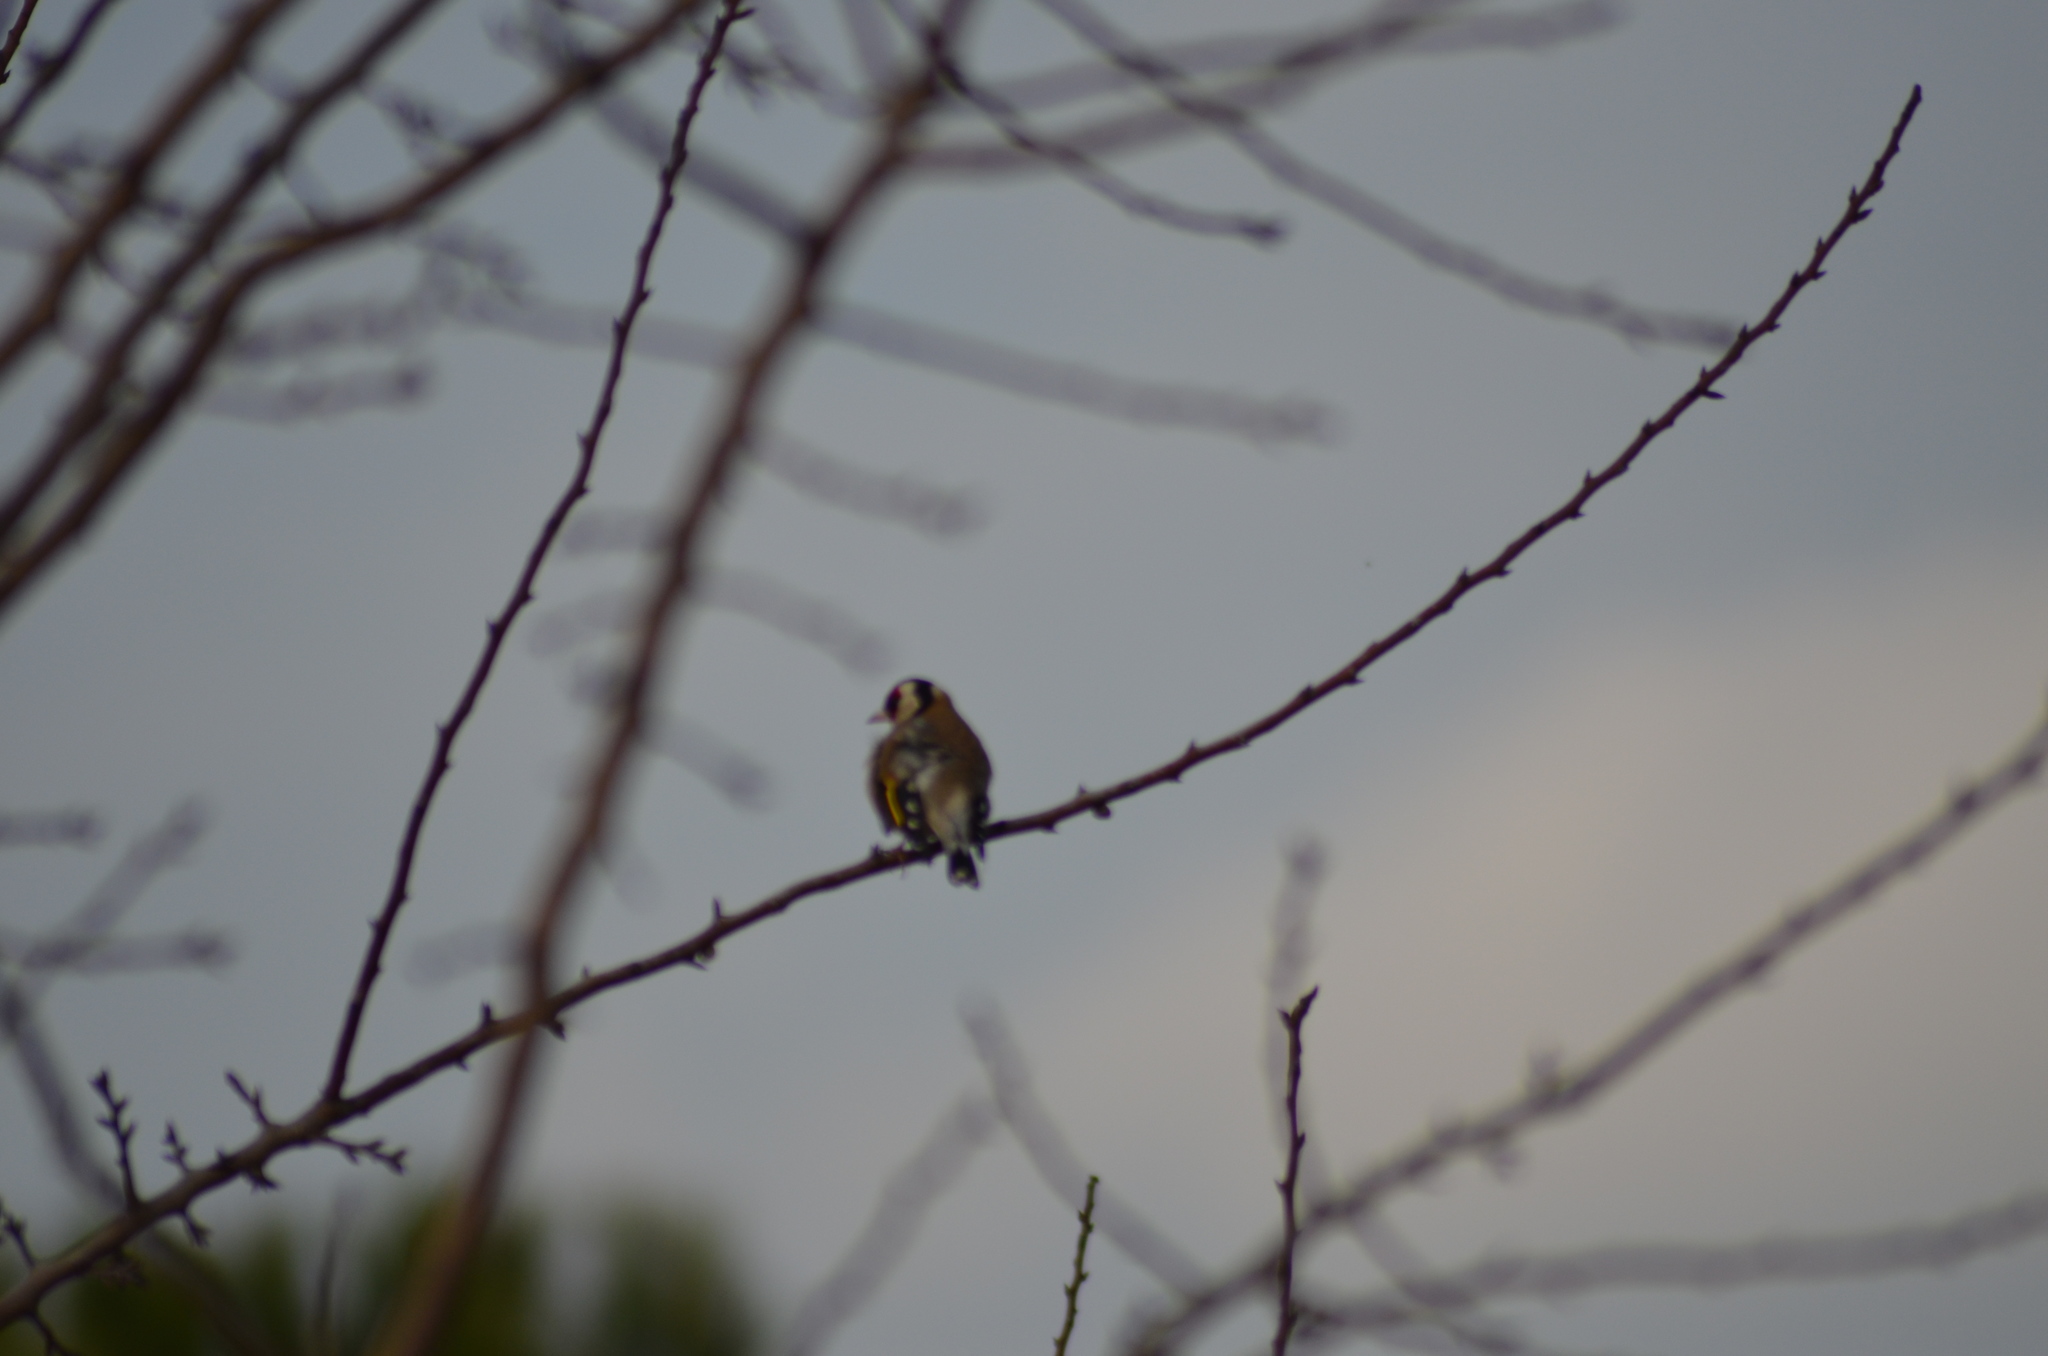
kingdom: Animalia
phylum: Chordata
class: Aves
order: Passeriformes
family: Fringillidae
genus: Carduelis
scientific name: Carduelis carduelis
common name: European goldfinch
